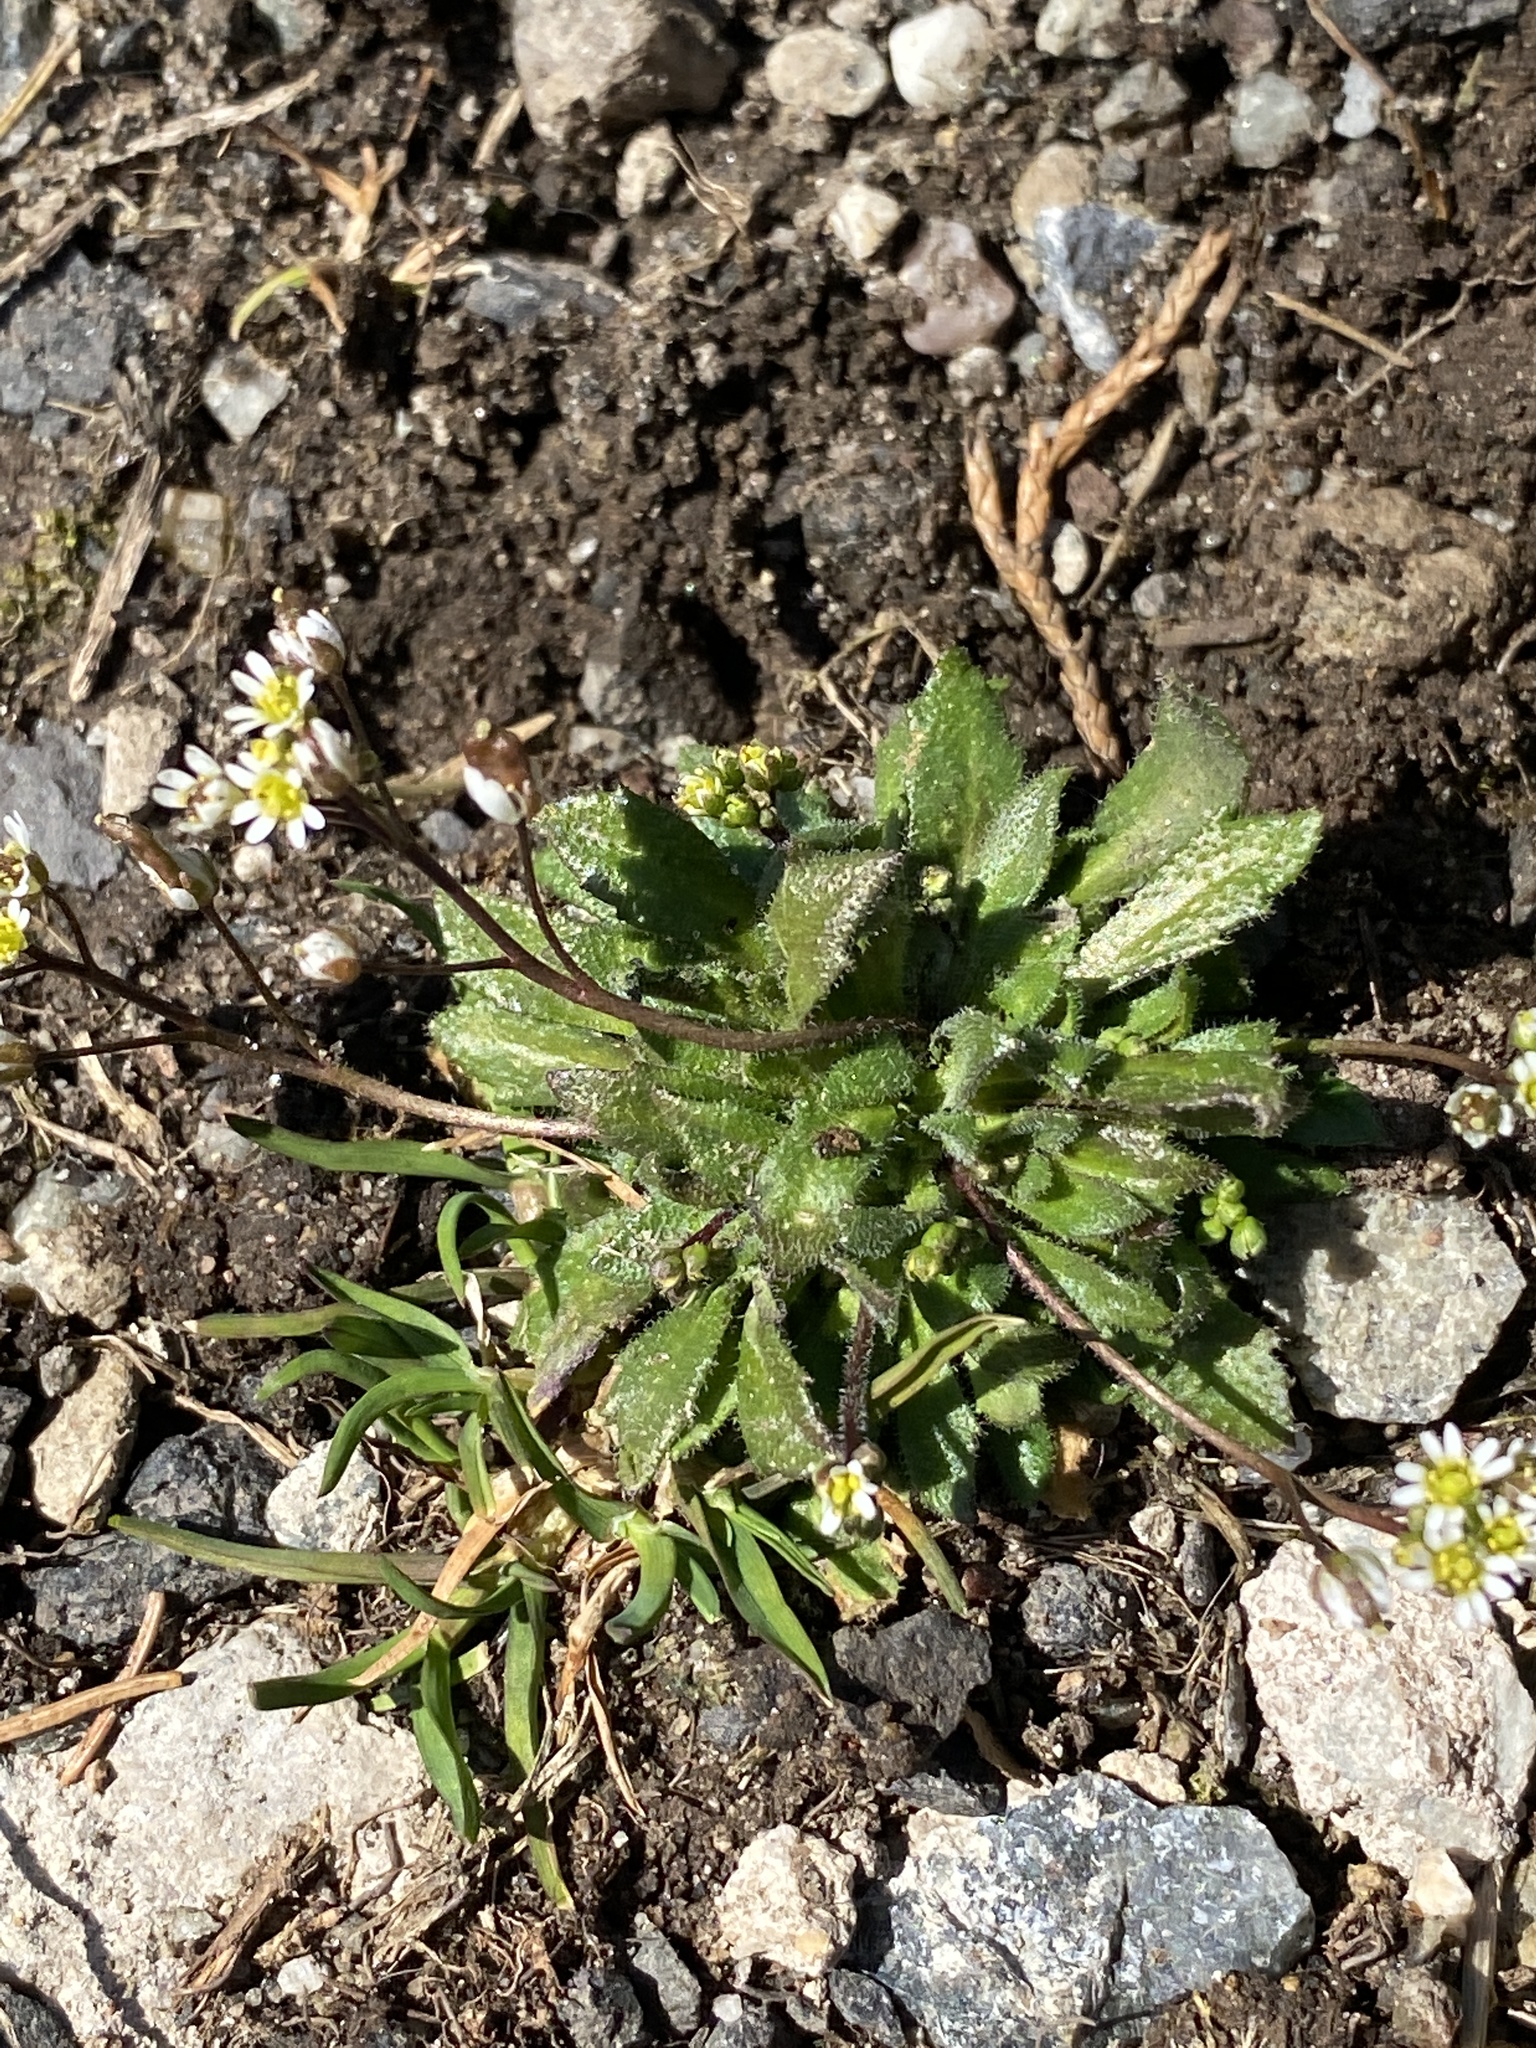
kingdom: Plantae
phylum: Tracheophyta
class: Magnoliopsida
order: Brassicales
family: Brassicaceae
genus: Draba
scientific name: Draba verna
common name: Spring draba
